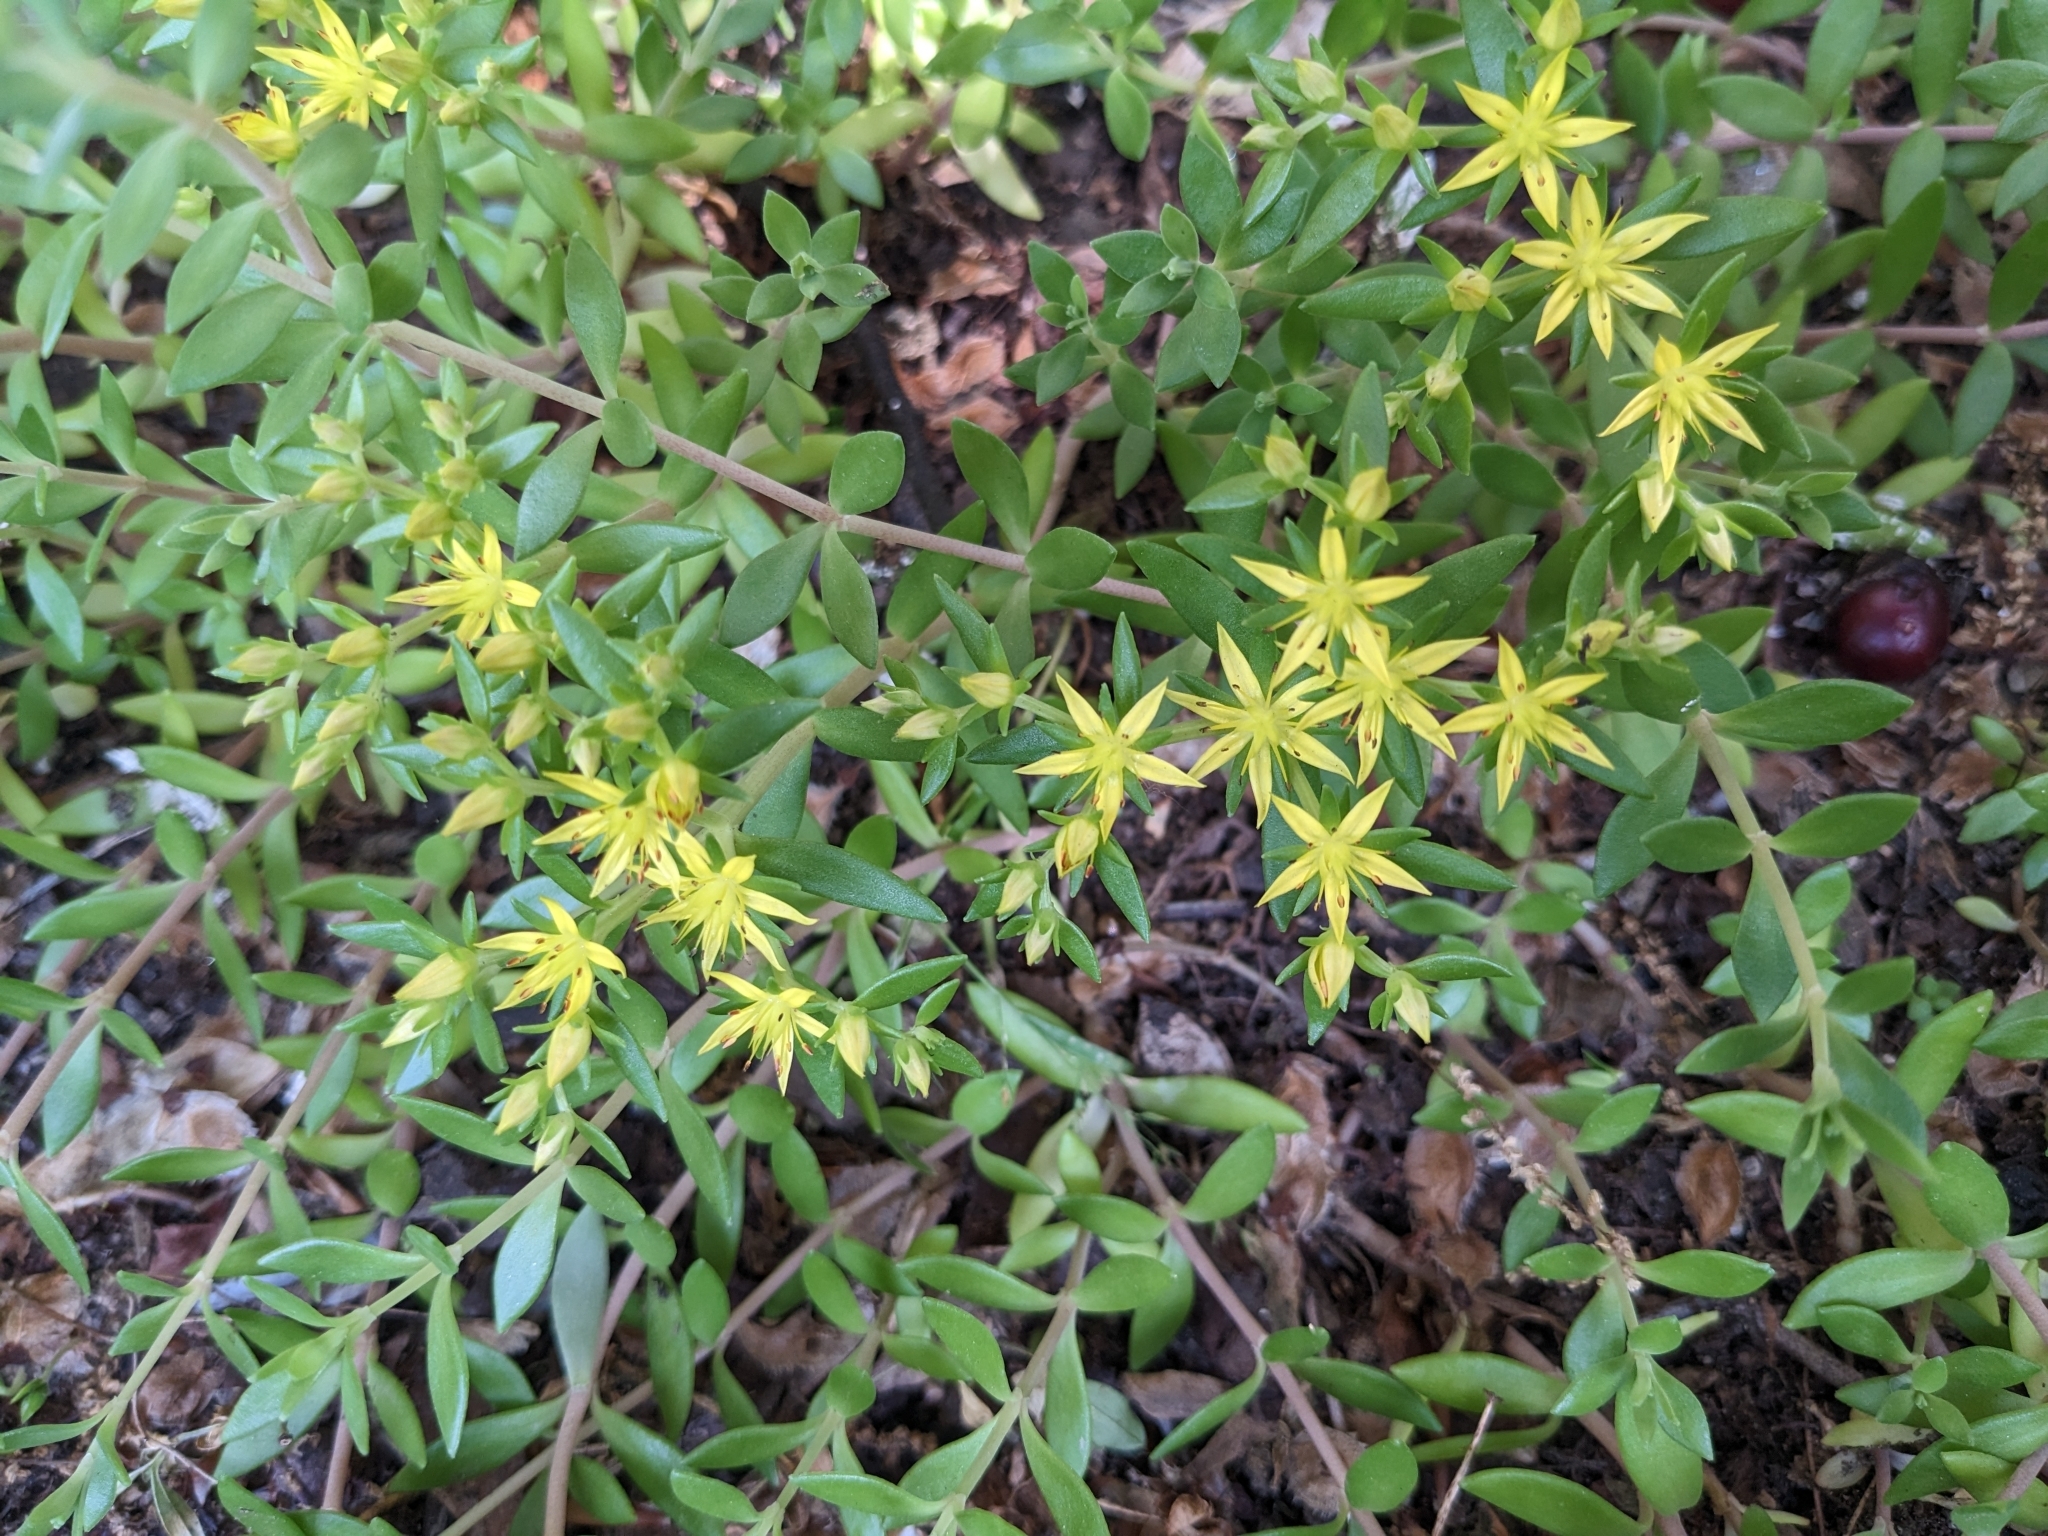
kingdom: Plantae
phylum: Tracheophyta
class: Magnoliopsida
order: Saxifragales
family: Crassulaceae
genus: Sedum
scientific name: Sedum sarmentosum
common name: Stringy stonecrop
